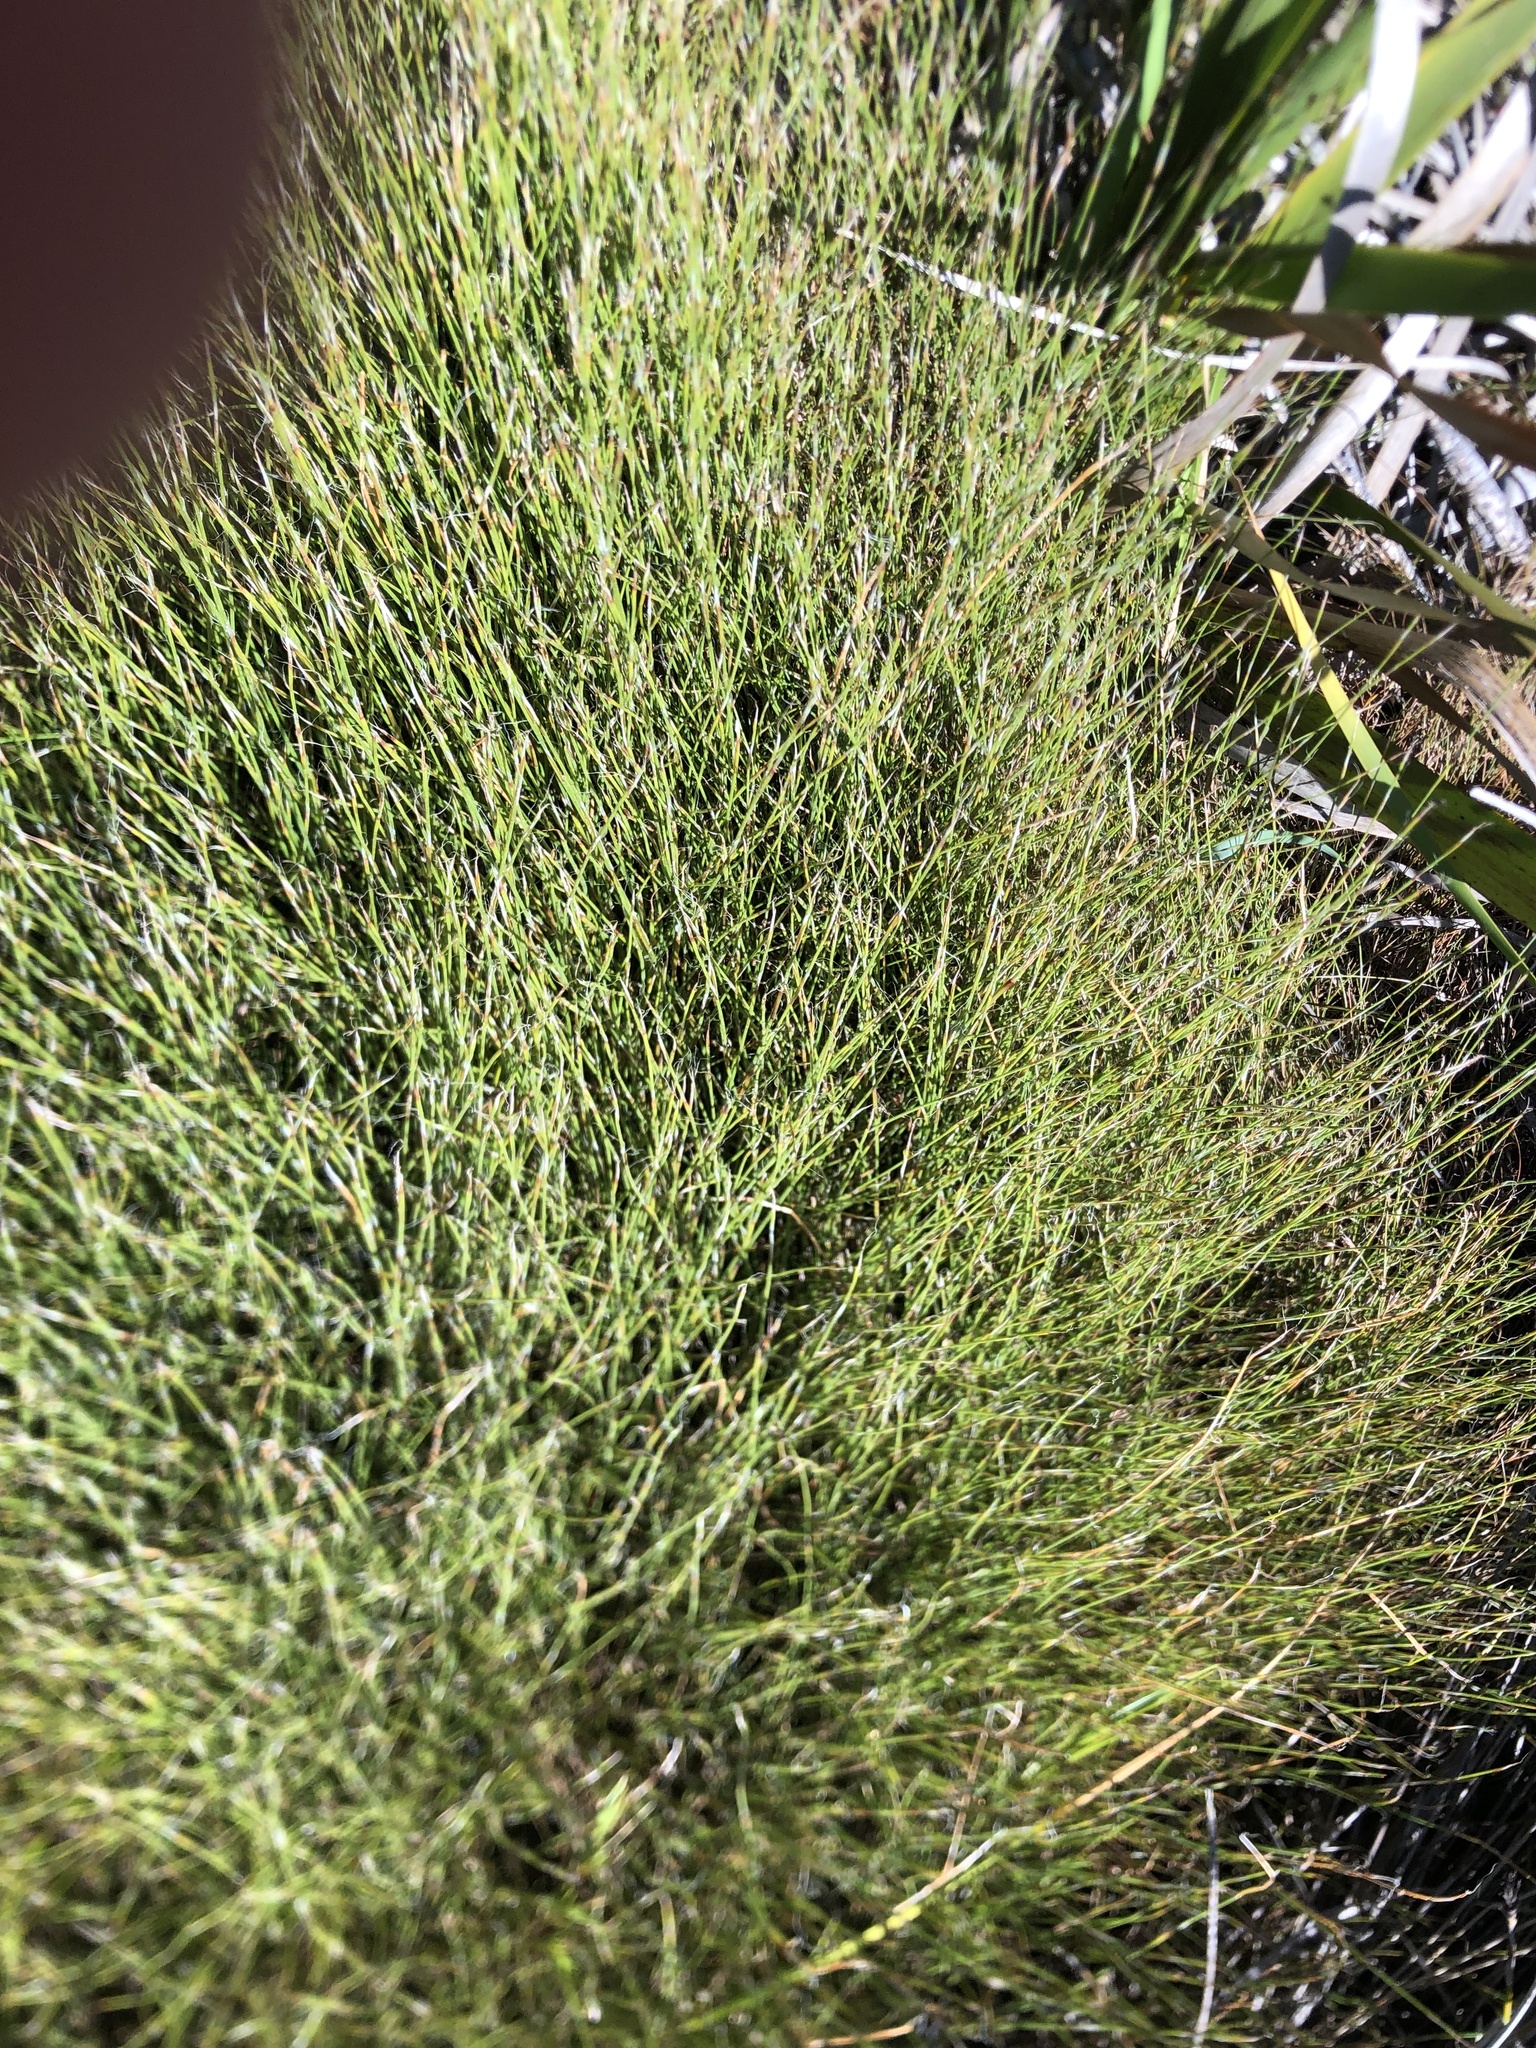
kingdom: Plantae
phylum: Tracheophyta
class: Liliopsida
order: Poales
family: Restionaceae
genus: Anthochortus
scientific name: Anthochortus crinalis
